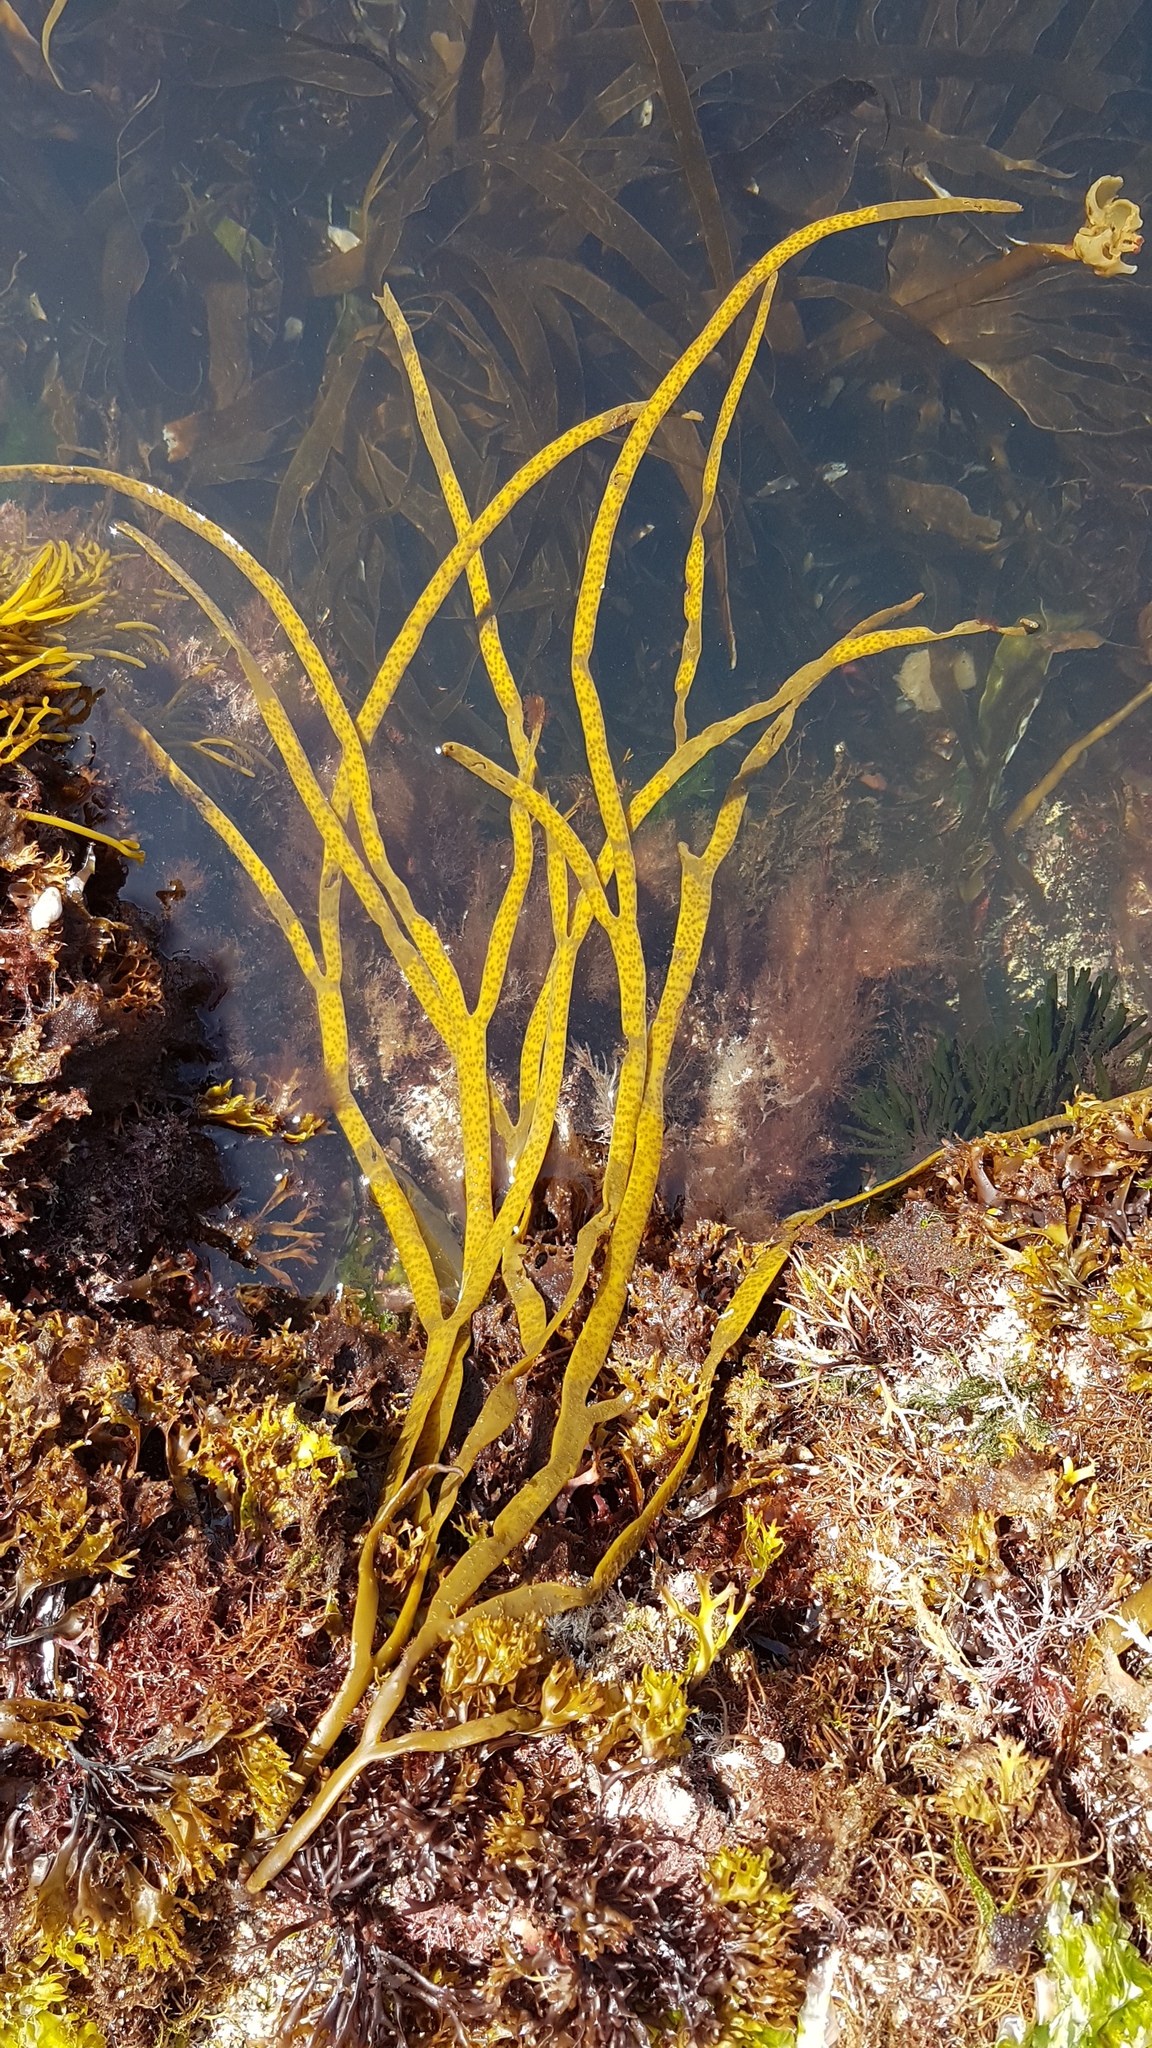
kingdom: Chromista
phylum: Ochrophyta
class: Phaeophyceae
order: Fucales
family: Himanthaliaceae
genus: Himanthalia
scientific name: Himanthalia elongata
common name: Sea-thong
